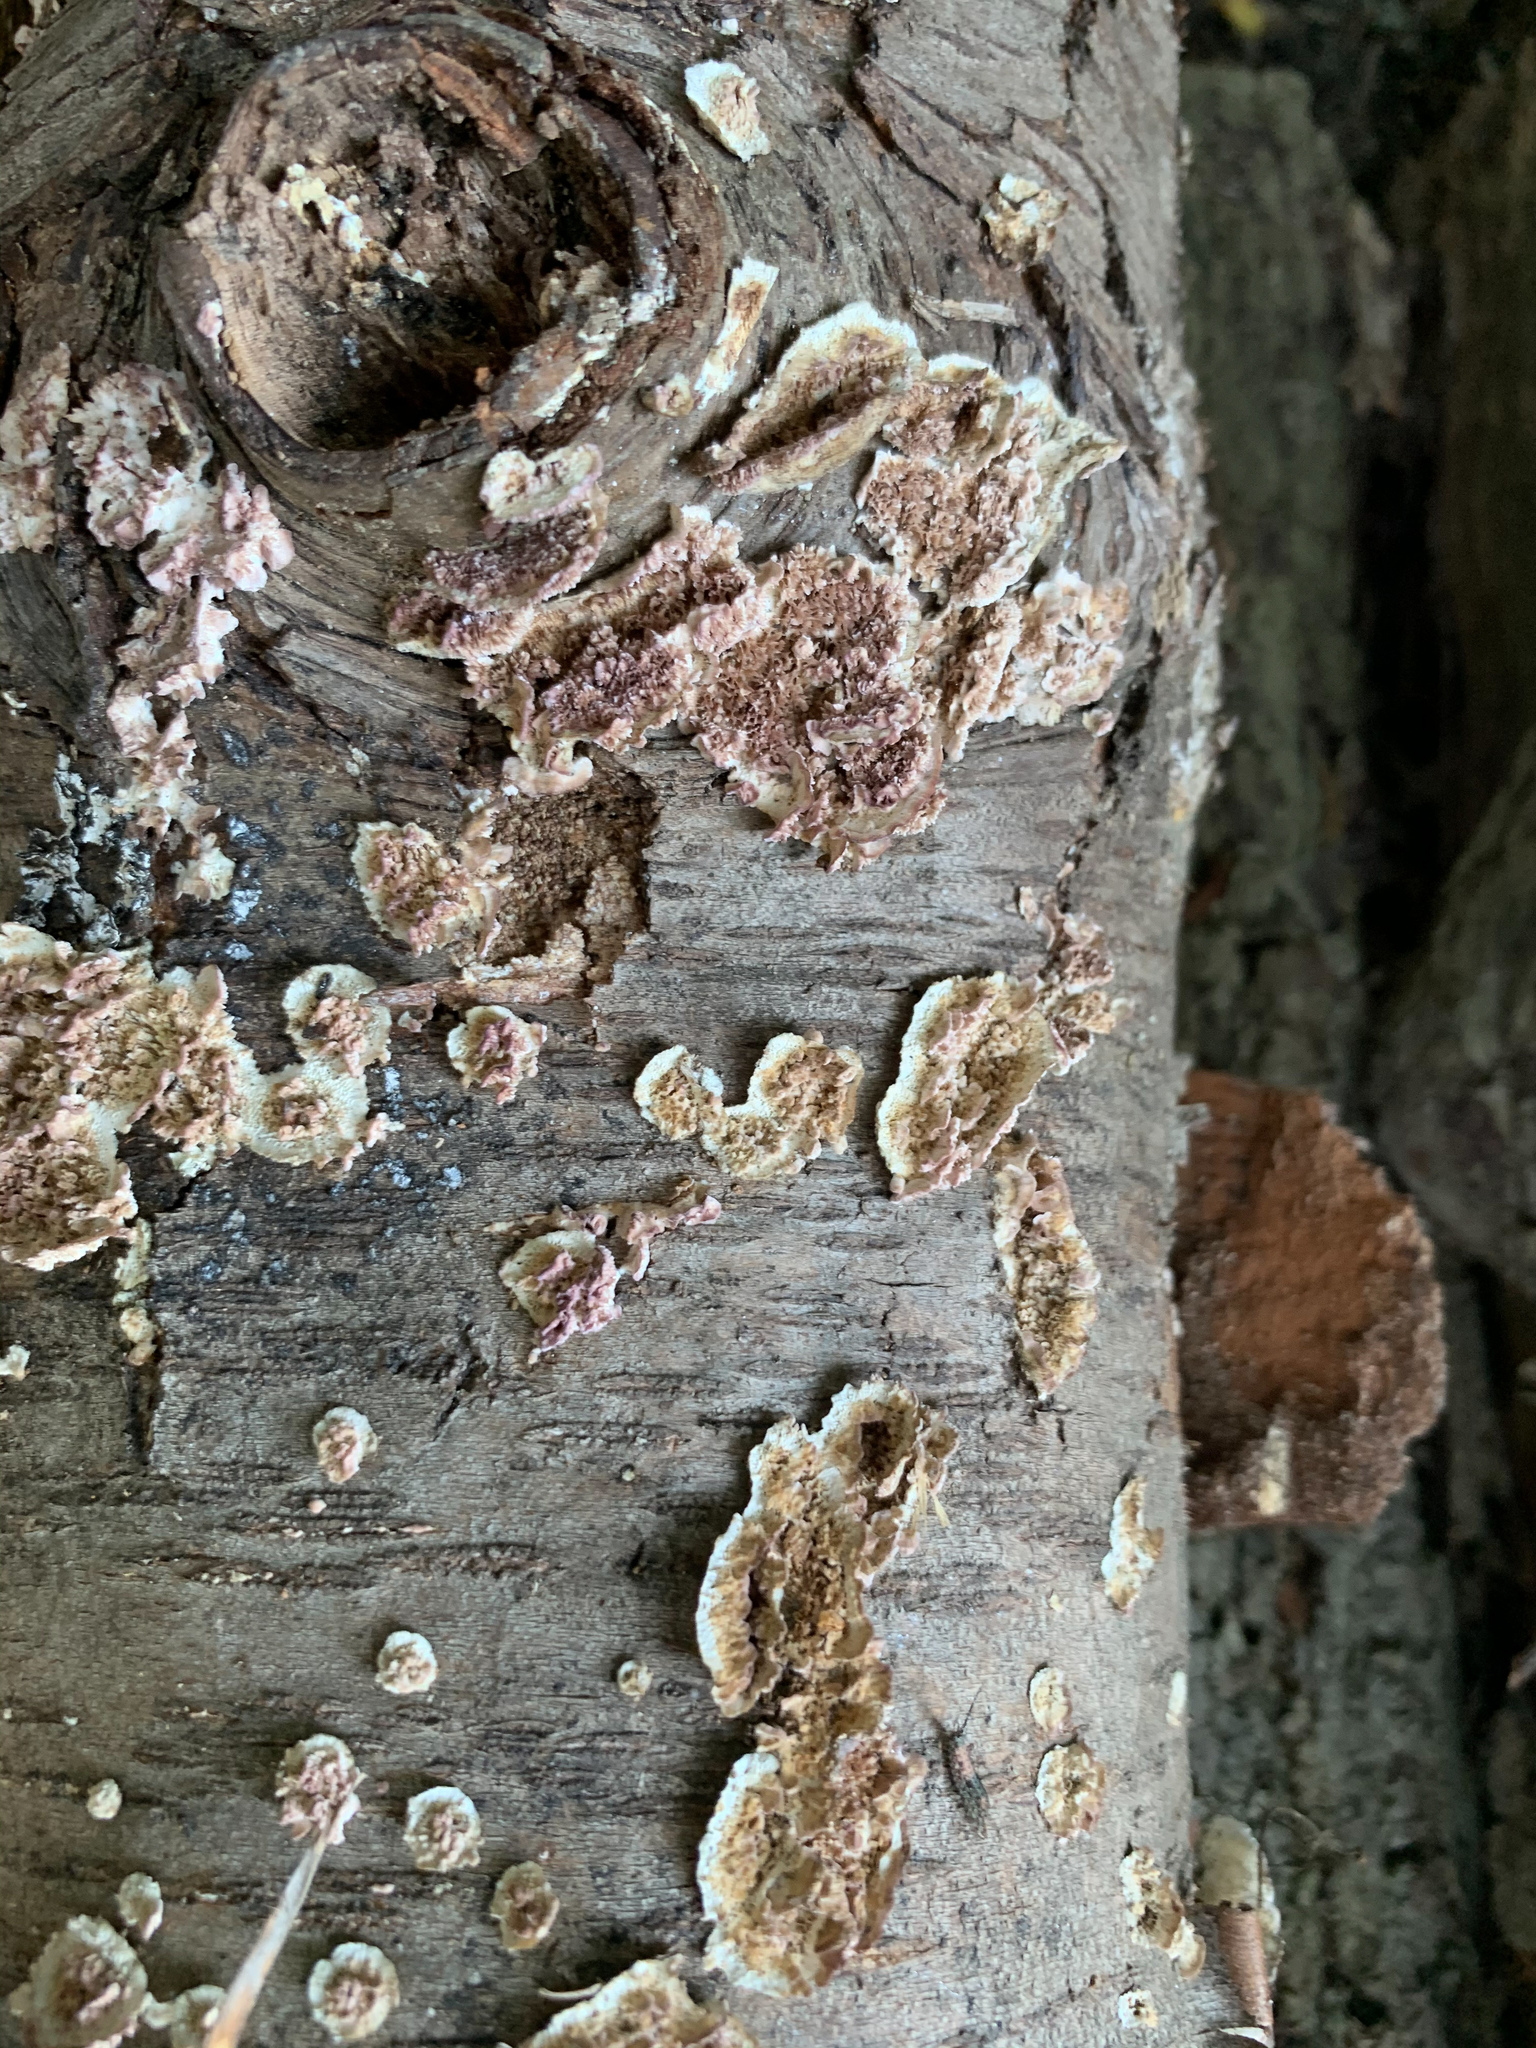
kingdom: Fungi
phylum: Basidiomycota
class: Agaricomycetes
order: Hymenochaetales
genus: Trichaptum
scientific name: Trichaptum biforme
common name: Violet-toothed polypore
